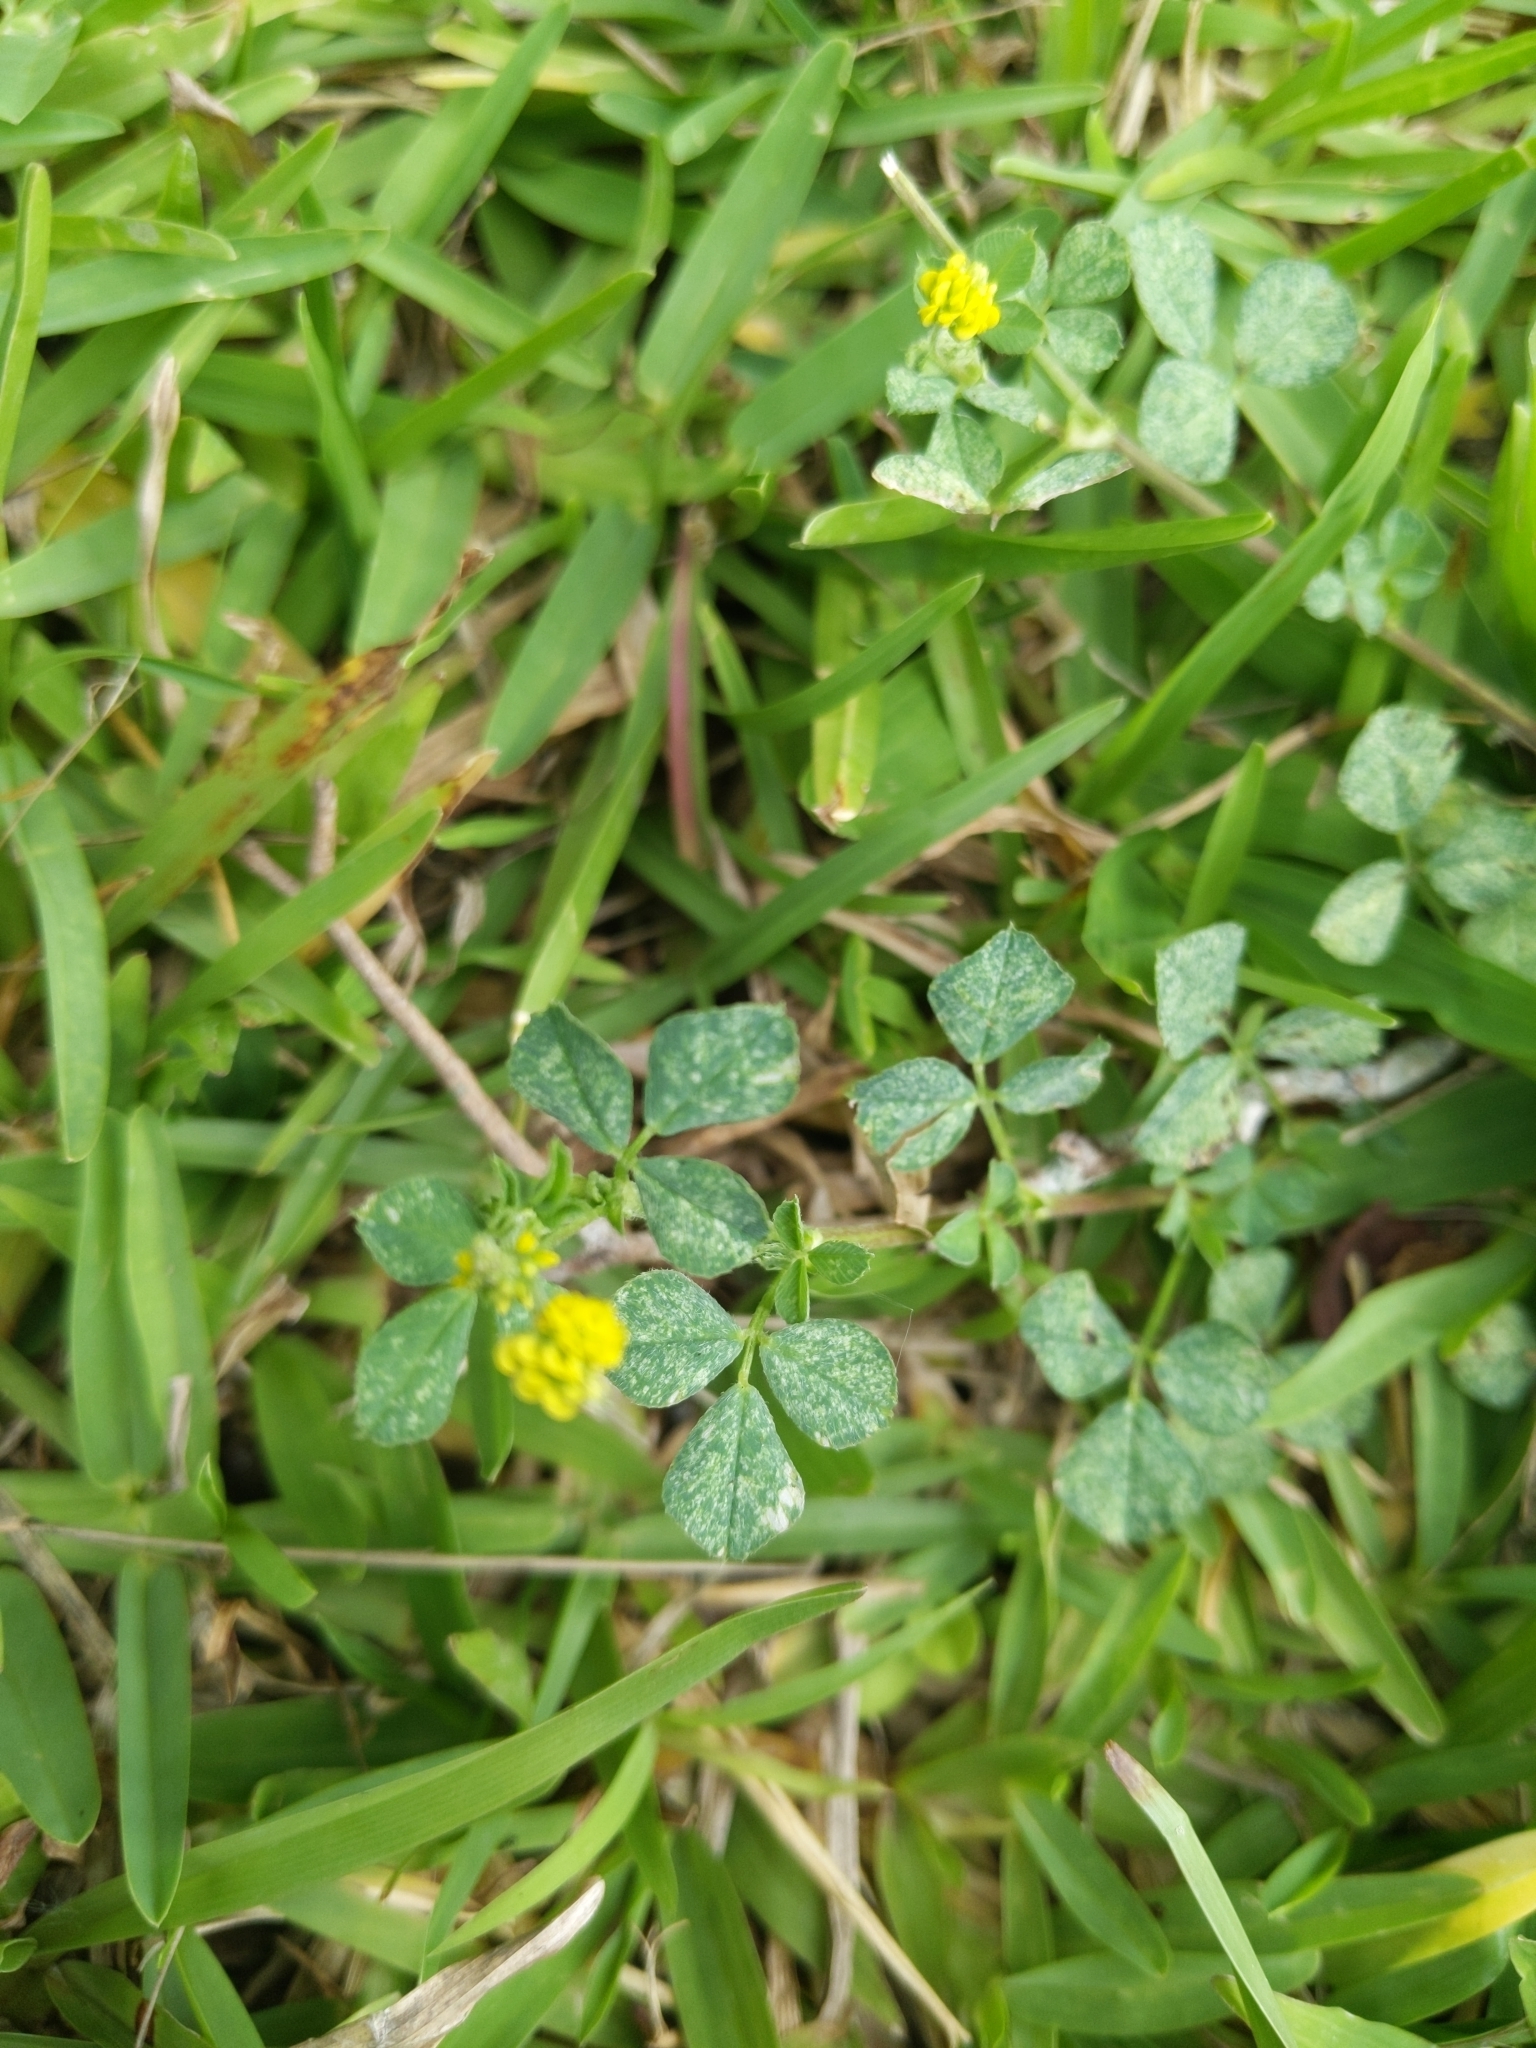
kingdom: Plantae
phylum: Tracheophyta
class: Magnoliopsida
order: Fabales
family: Fabaceae
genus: Medicago
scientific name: Medicago lupulina
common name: Black medick
